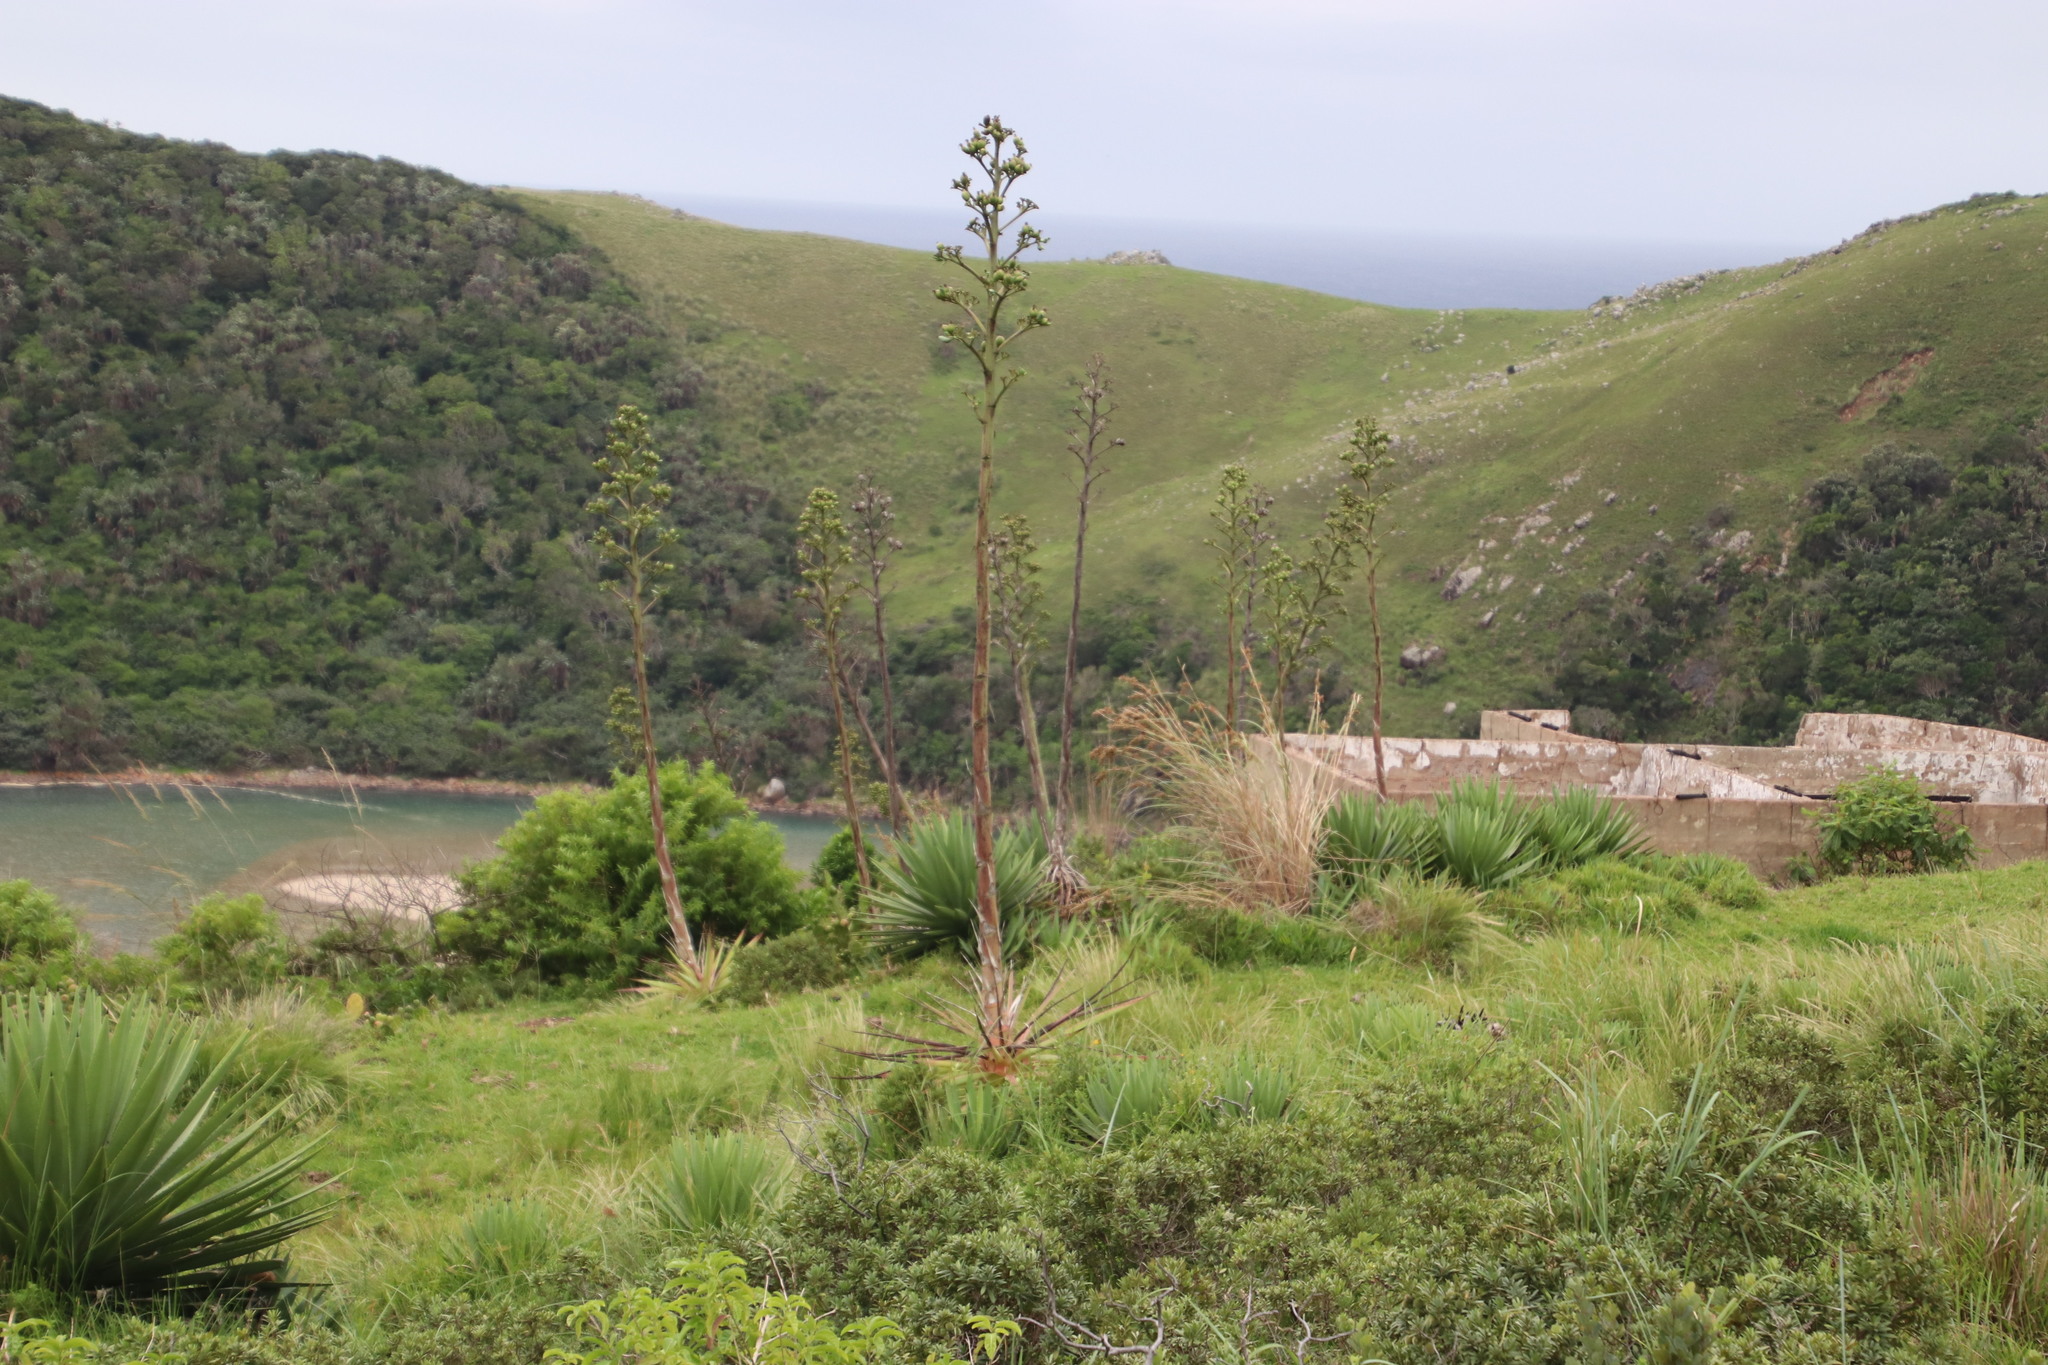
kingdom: Plantae
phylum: Tracheophyta
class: Liliopsida
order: Asparagales
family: Asparagaceae
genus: Agave
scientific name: Agave angustifolia
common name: Mescal agave
